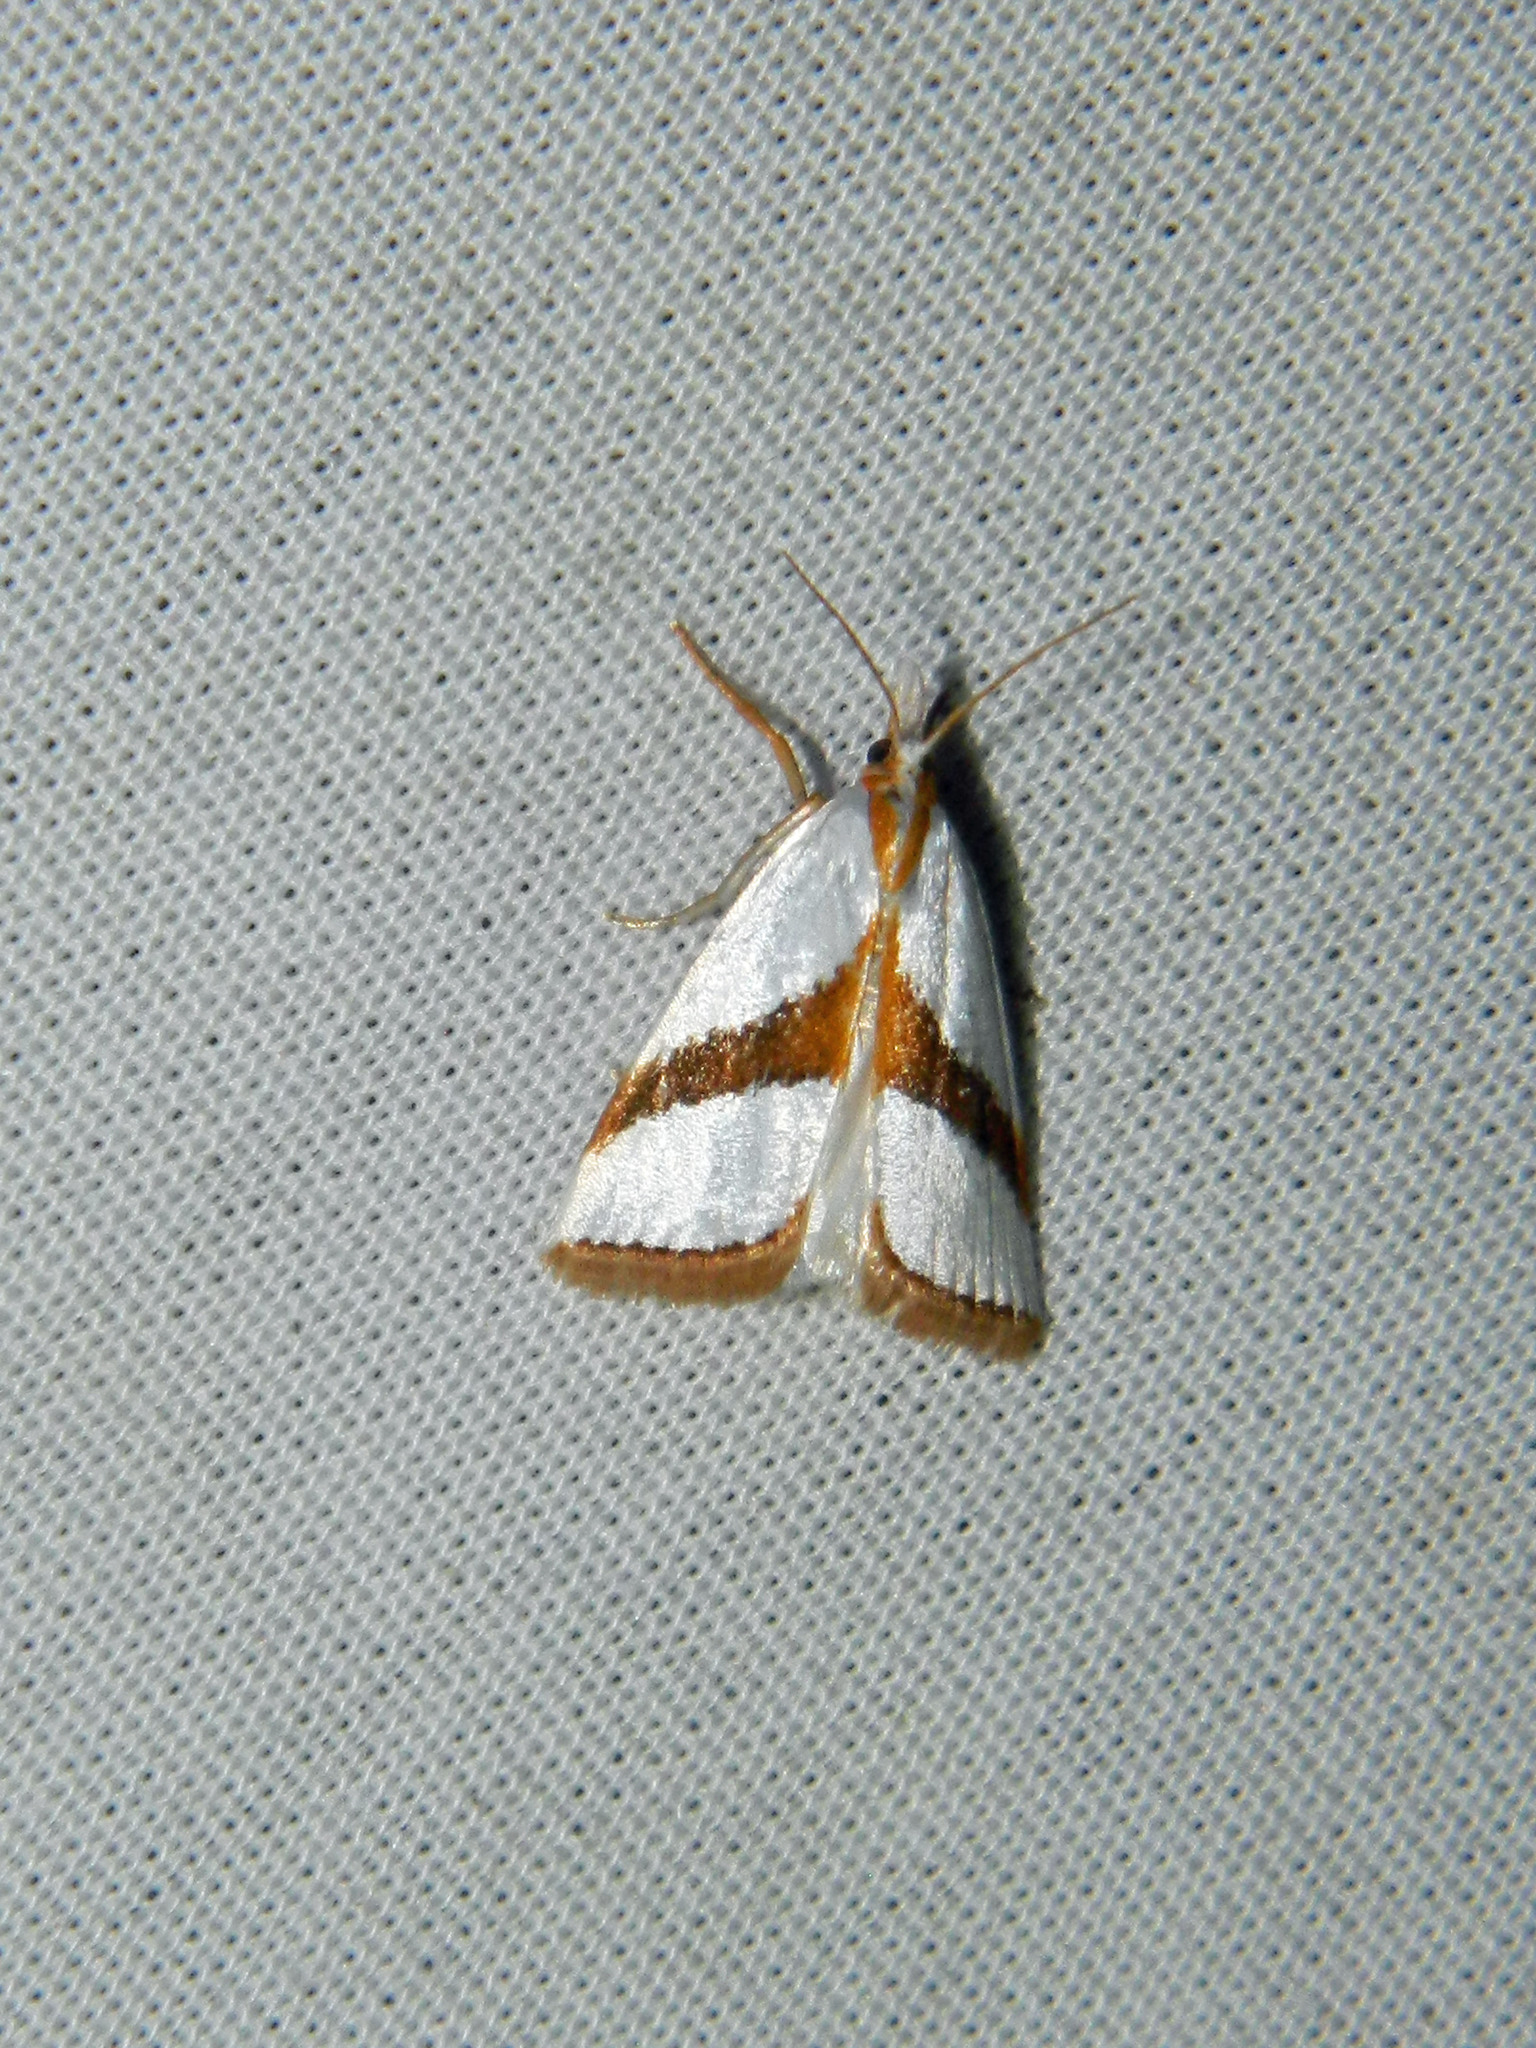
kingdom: Animalia
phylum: Arthropoda
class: Insecta
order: Lepidoptera
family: Crambidae
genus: Vaxi
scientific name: Vaxi critica
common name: Straight-lined vaxi moth
